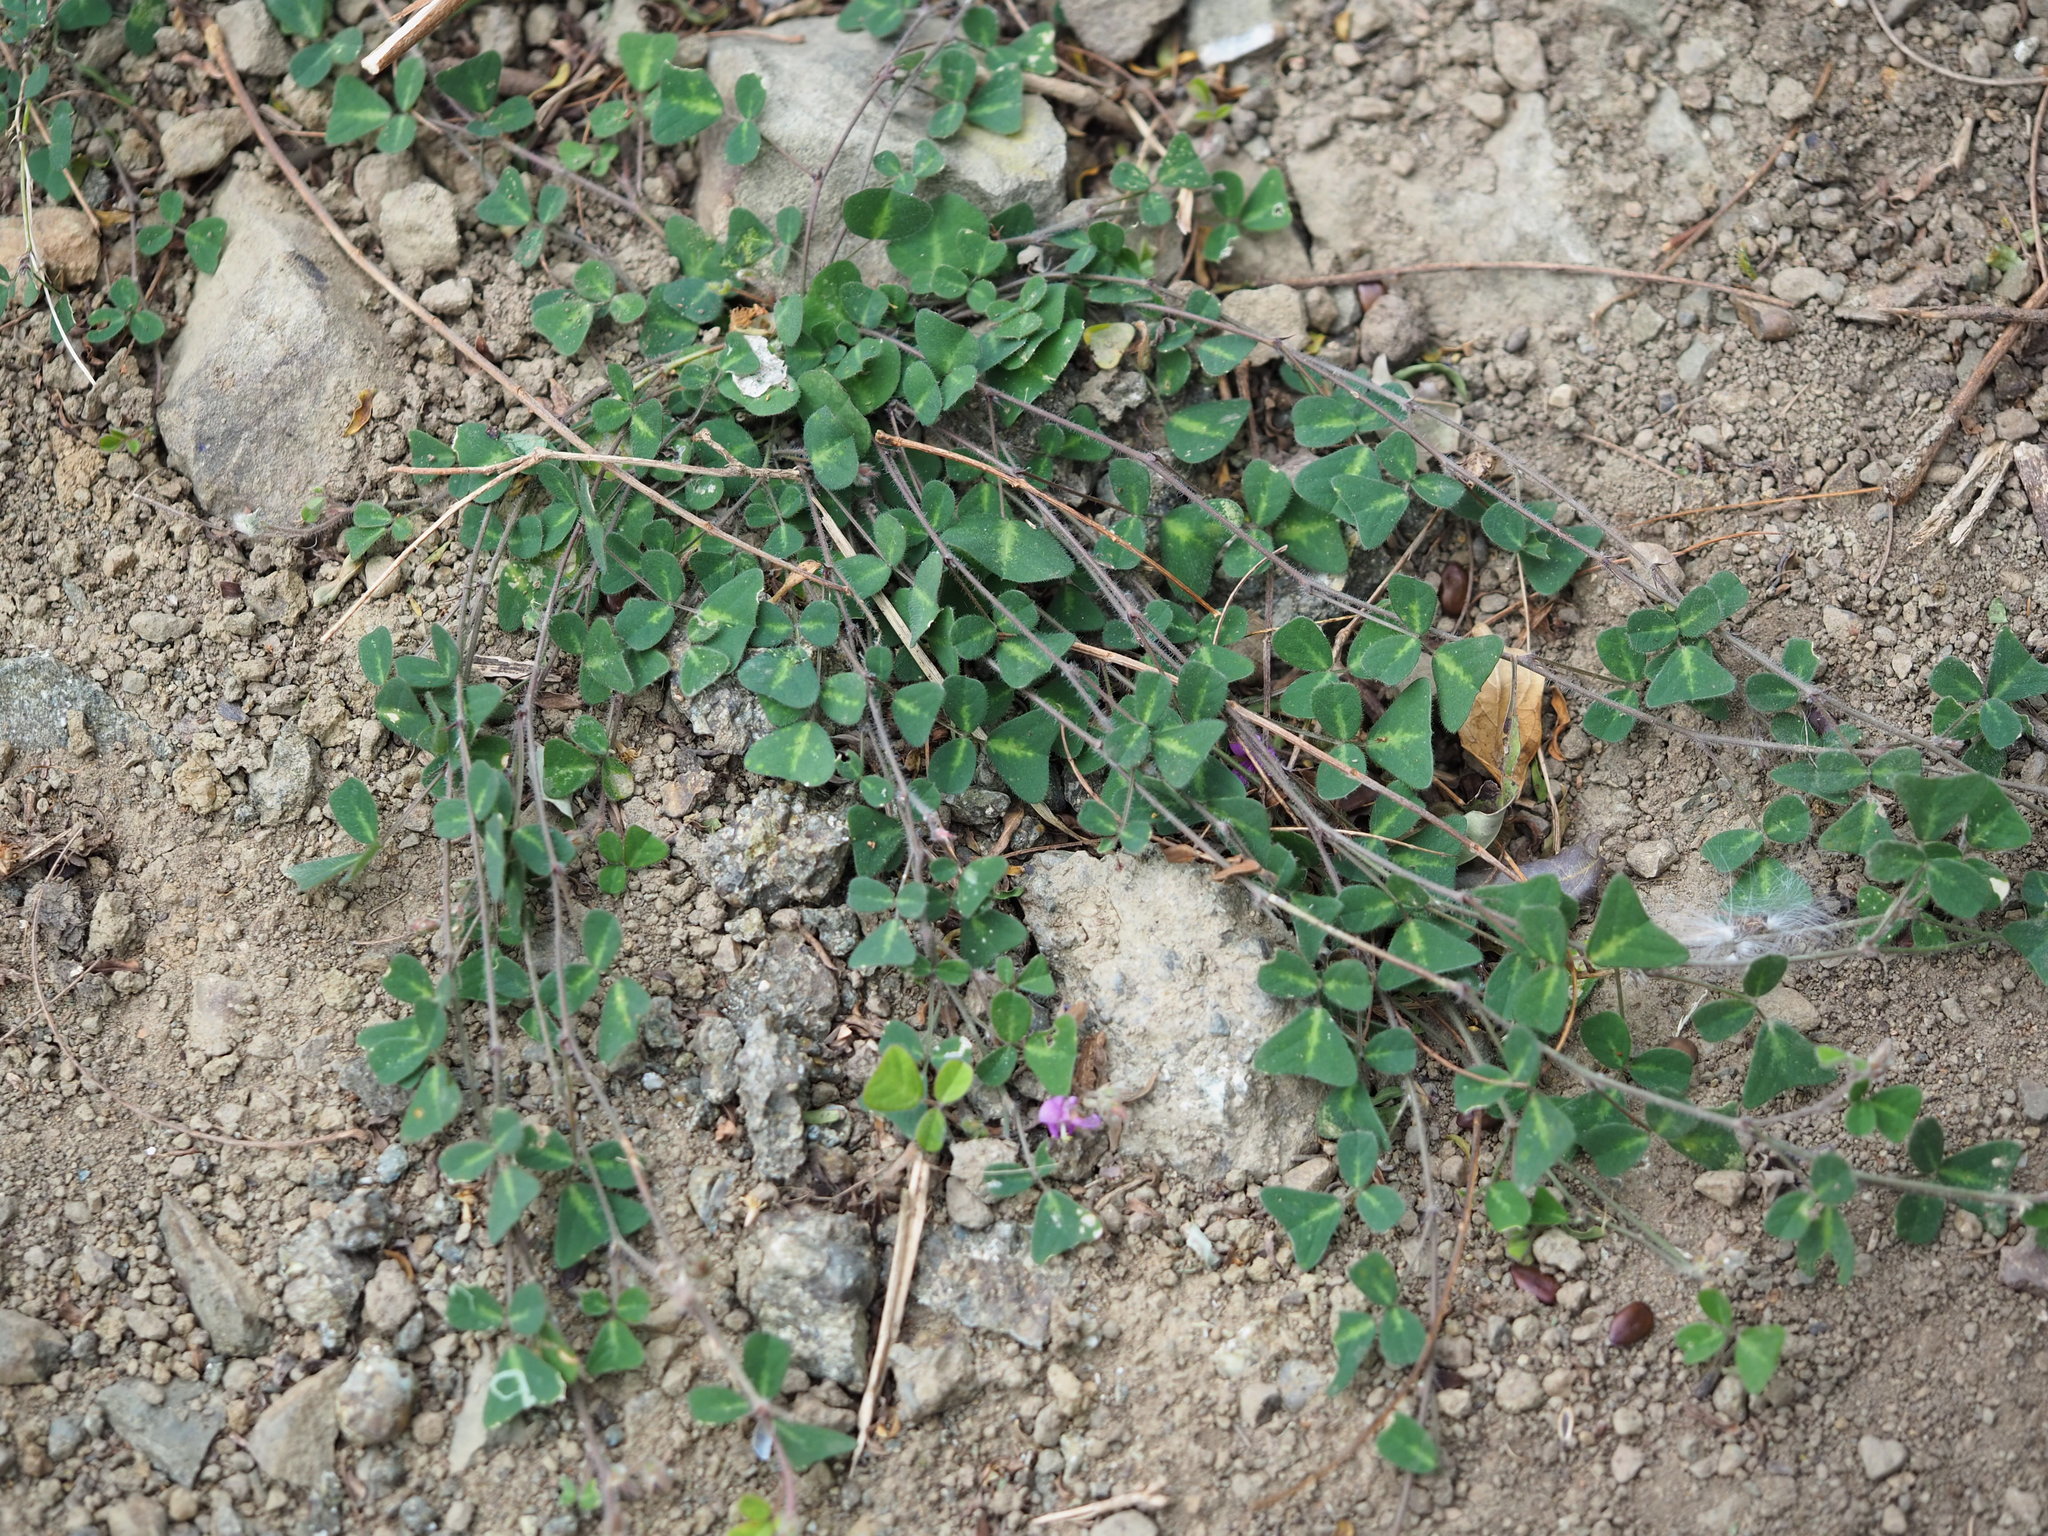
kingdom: Plantae
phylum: Tracheophyta
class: Magnoliopsida
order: Fabales
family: Fabaceae
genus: Christia
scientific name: Christia obcordata
